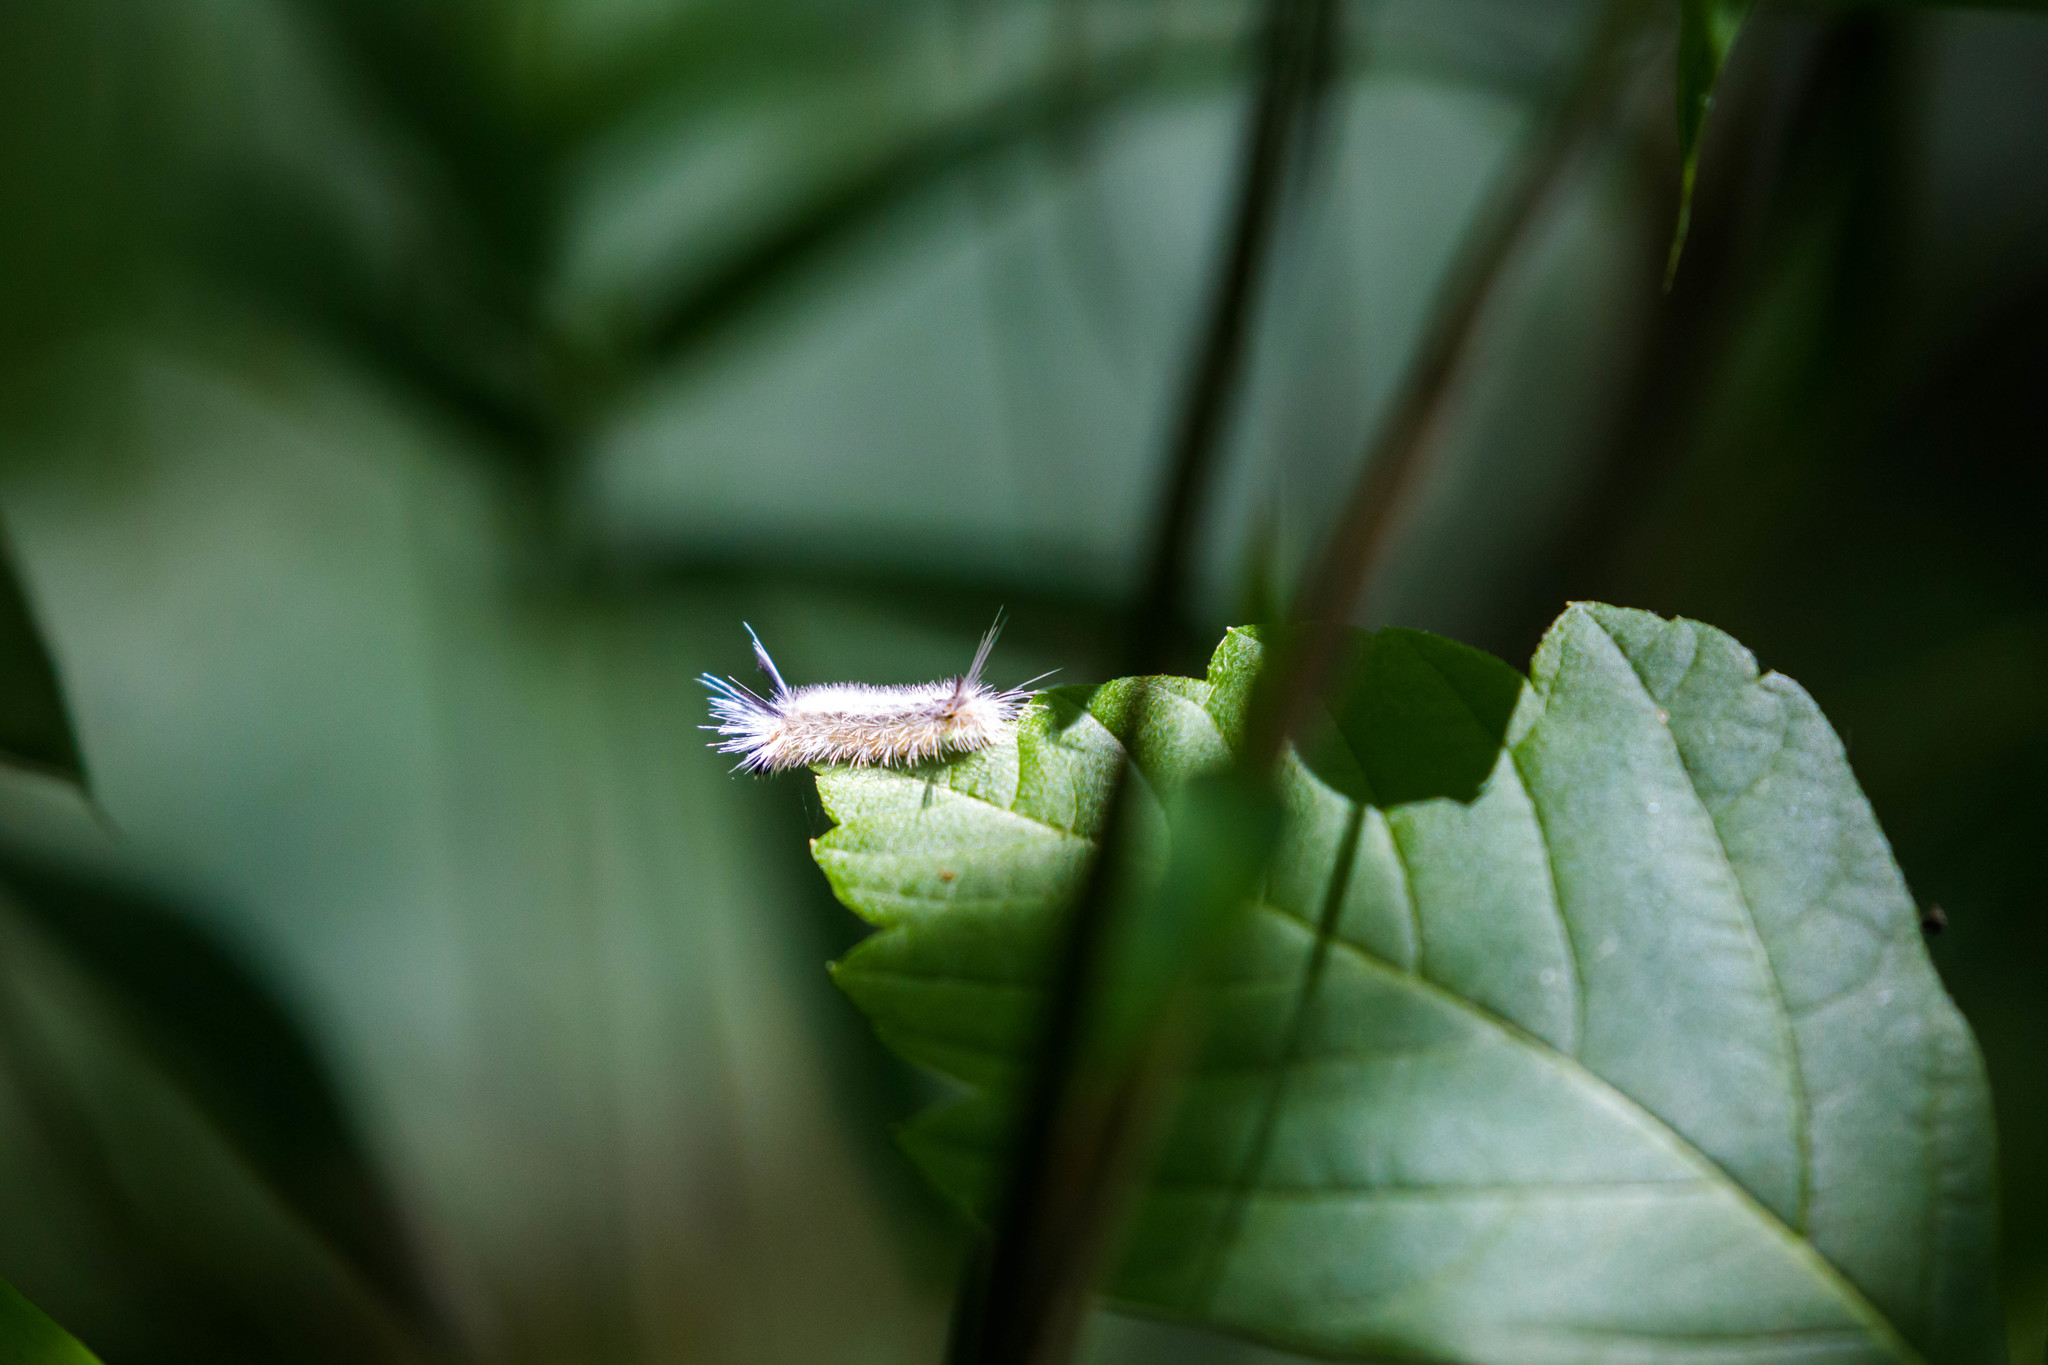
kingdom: Animalia
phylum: Arthropoda
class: Insecta
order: Lepidoptera
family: Erebidae
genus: Halysidota
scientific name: Halysidota tessellaris
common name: Banded tussock moth
